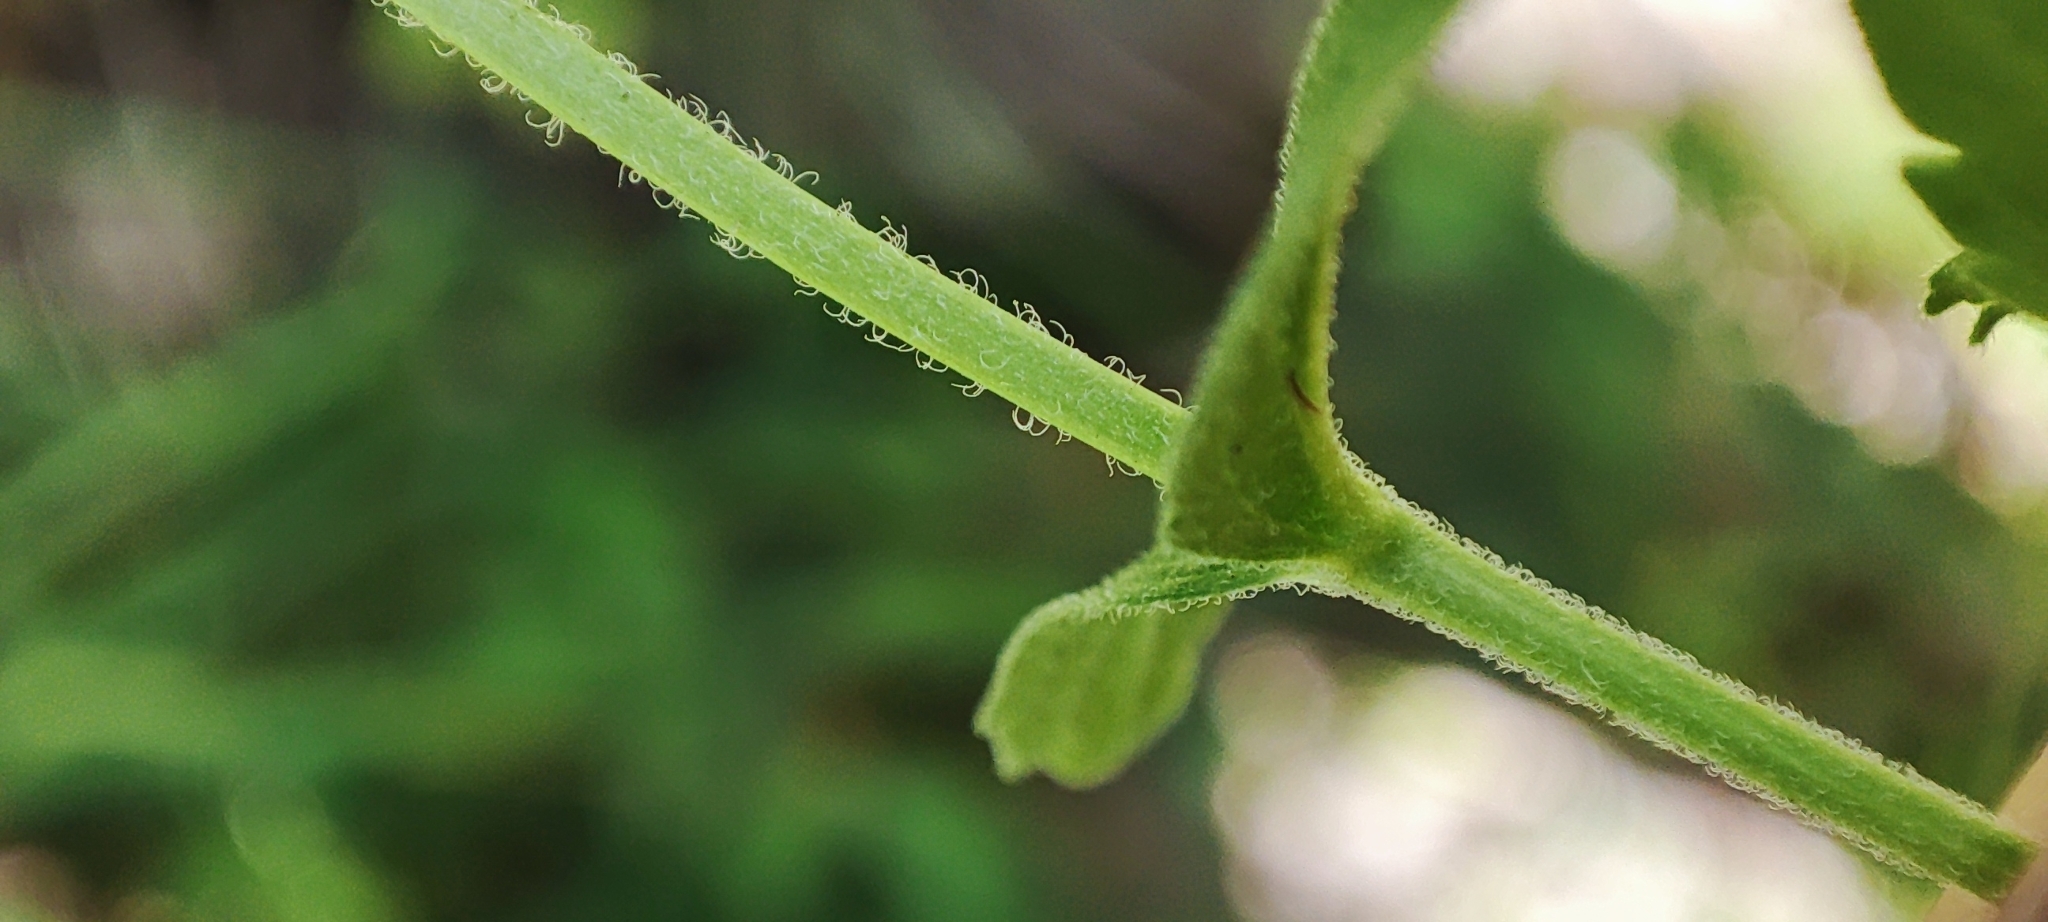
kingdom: Plantae
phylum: Tracheophyta
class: Magnoliopsida
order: Lamiales
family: Plantaginaceae
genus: Veronica
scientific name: Veronica teucrium
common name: Large speedwell
